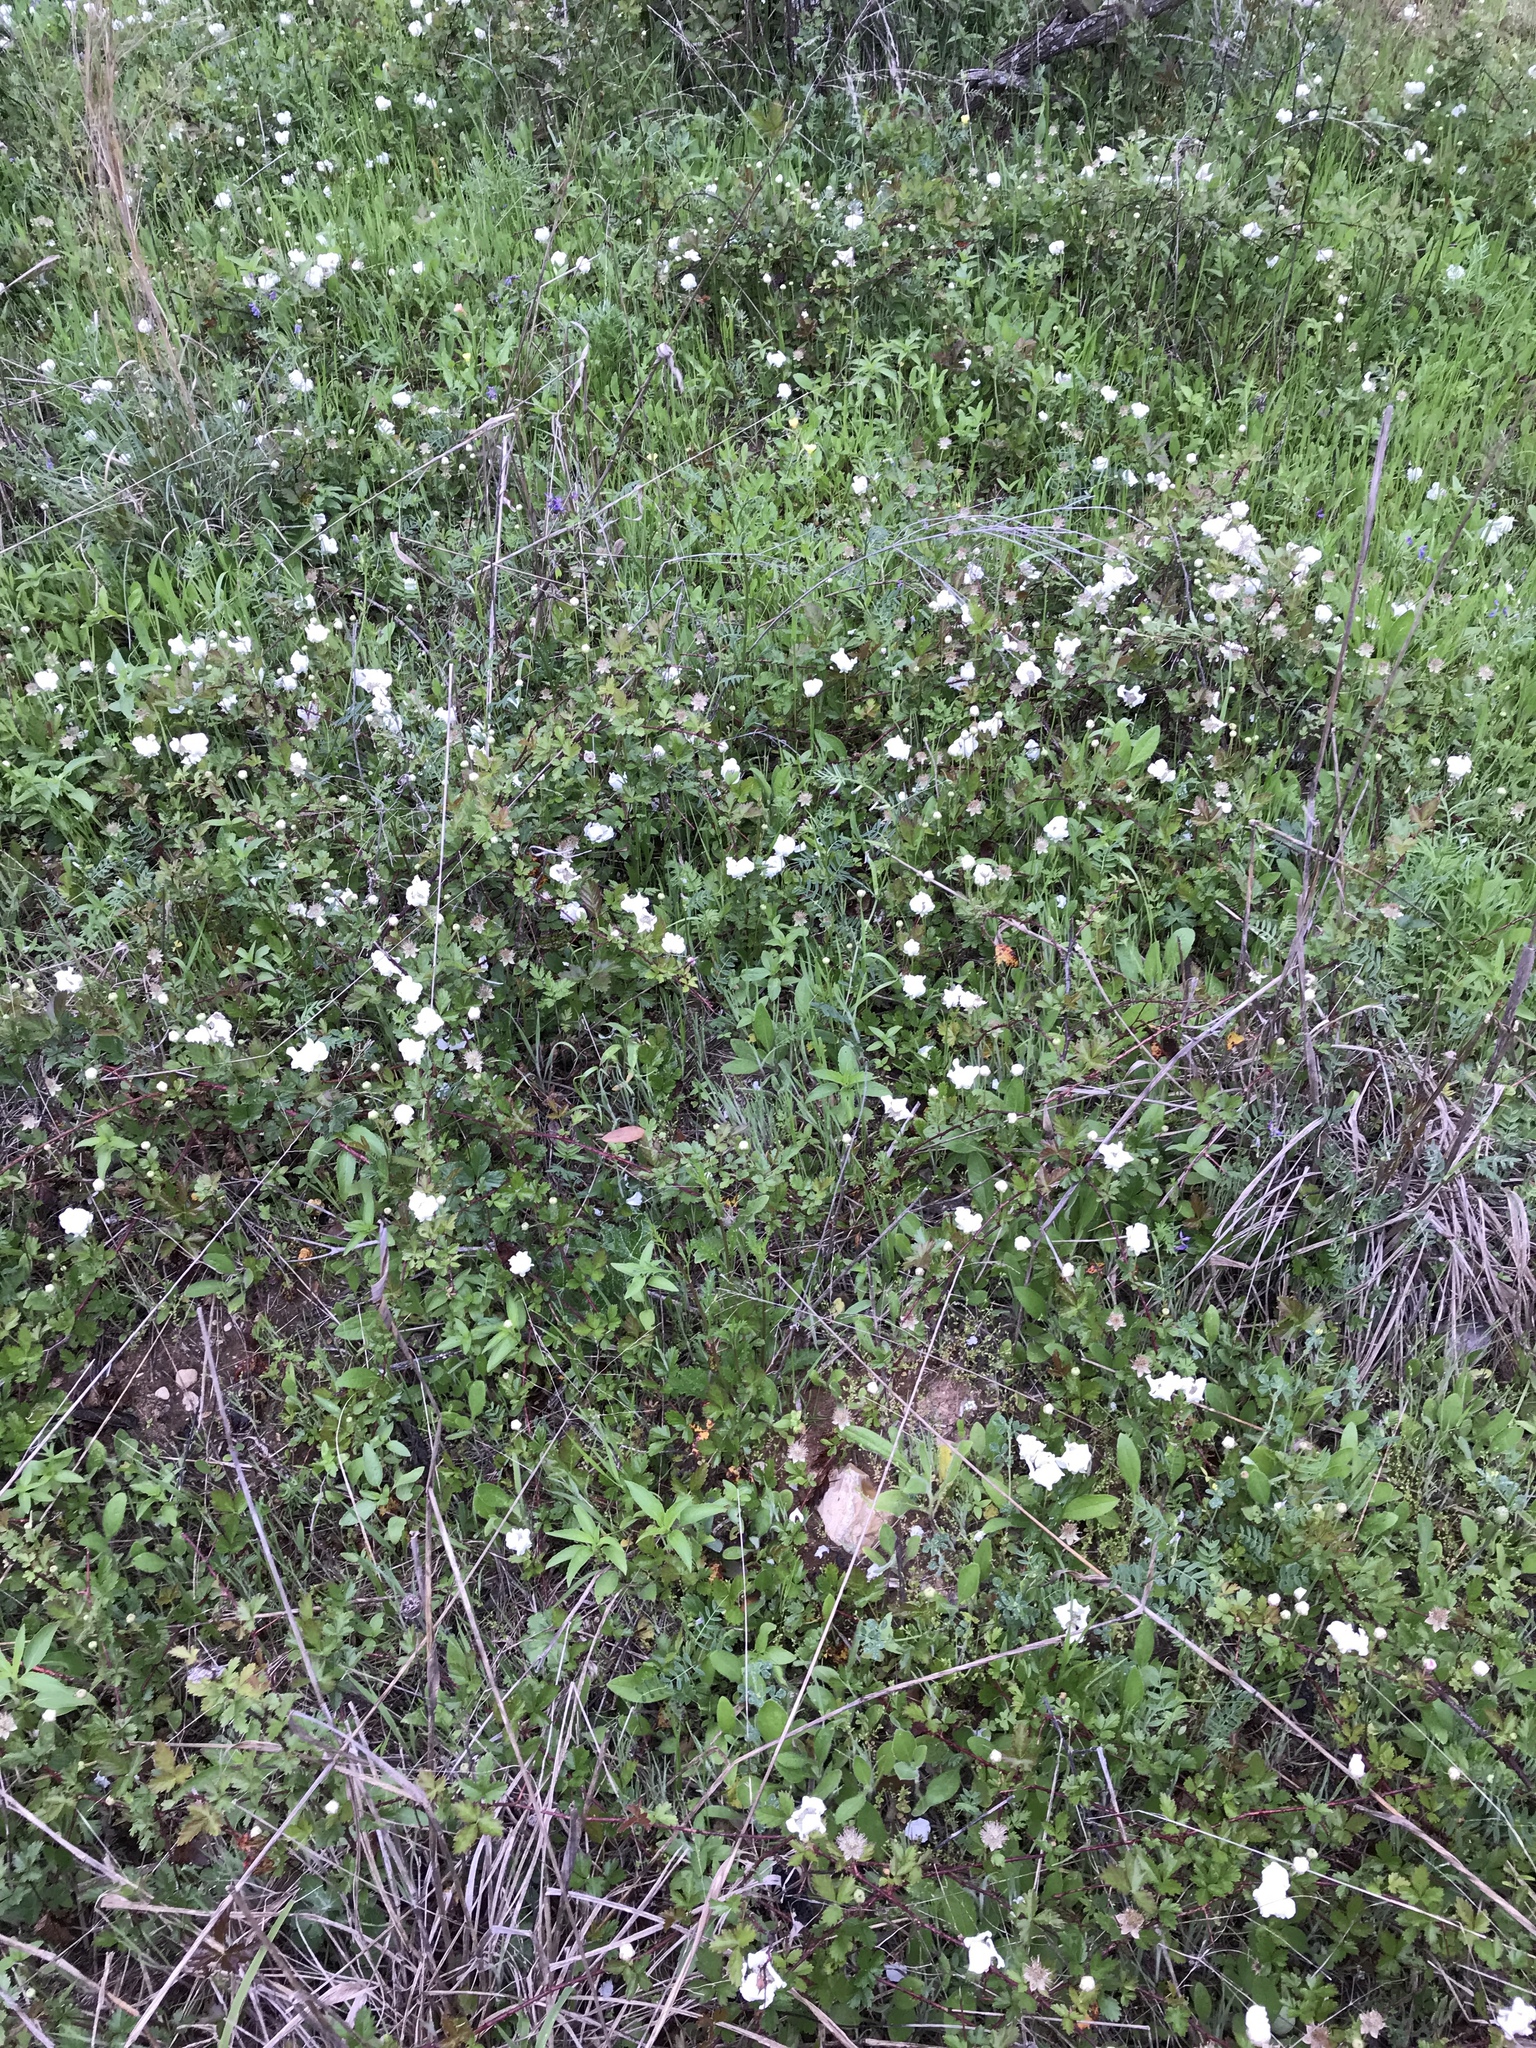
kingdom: Plantae
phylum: Tracheophyta
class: Magnoliopsida
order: Rosales
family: Rosaceae
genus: Rubus
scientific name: Rubus trivialis
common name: Southern dewberry
